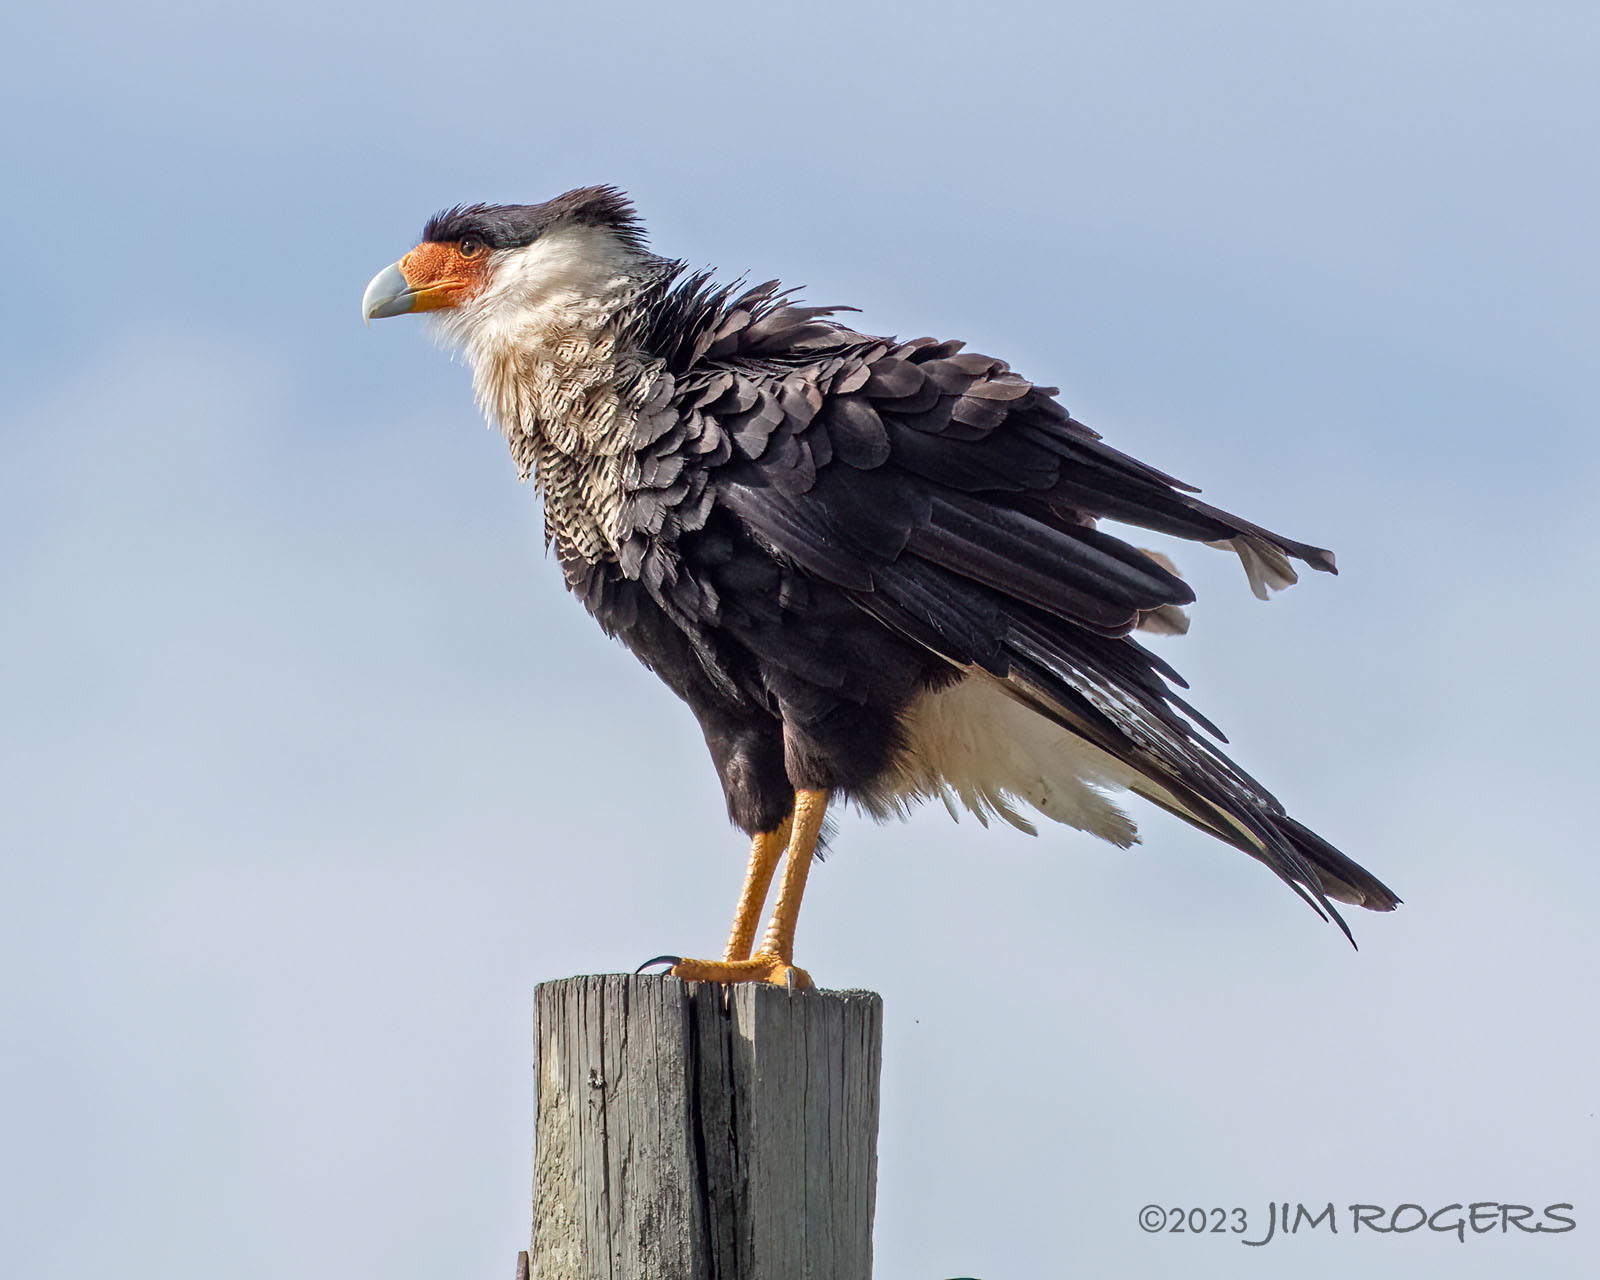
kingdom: Animalia
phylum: Chordata
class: Aves
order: Falconiformes
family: Falconidae
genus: Caracara
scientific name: Caracara plancus
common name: Southern caracara
